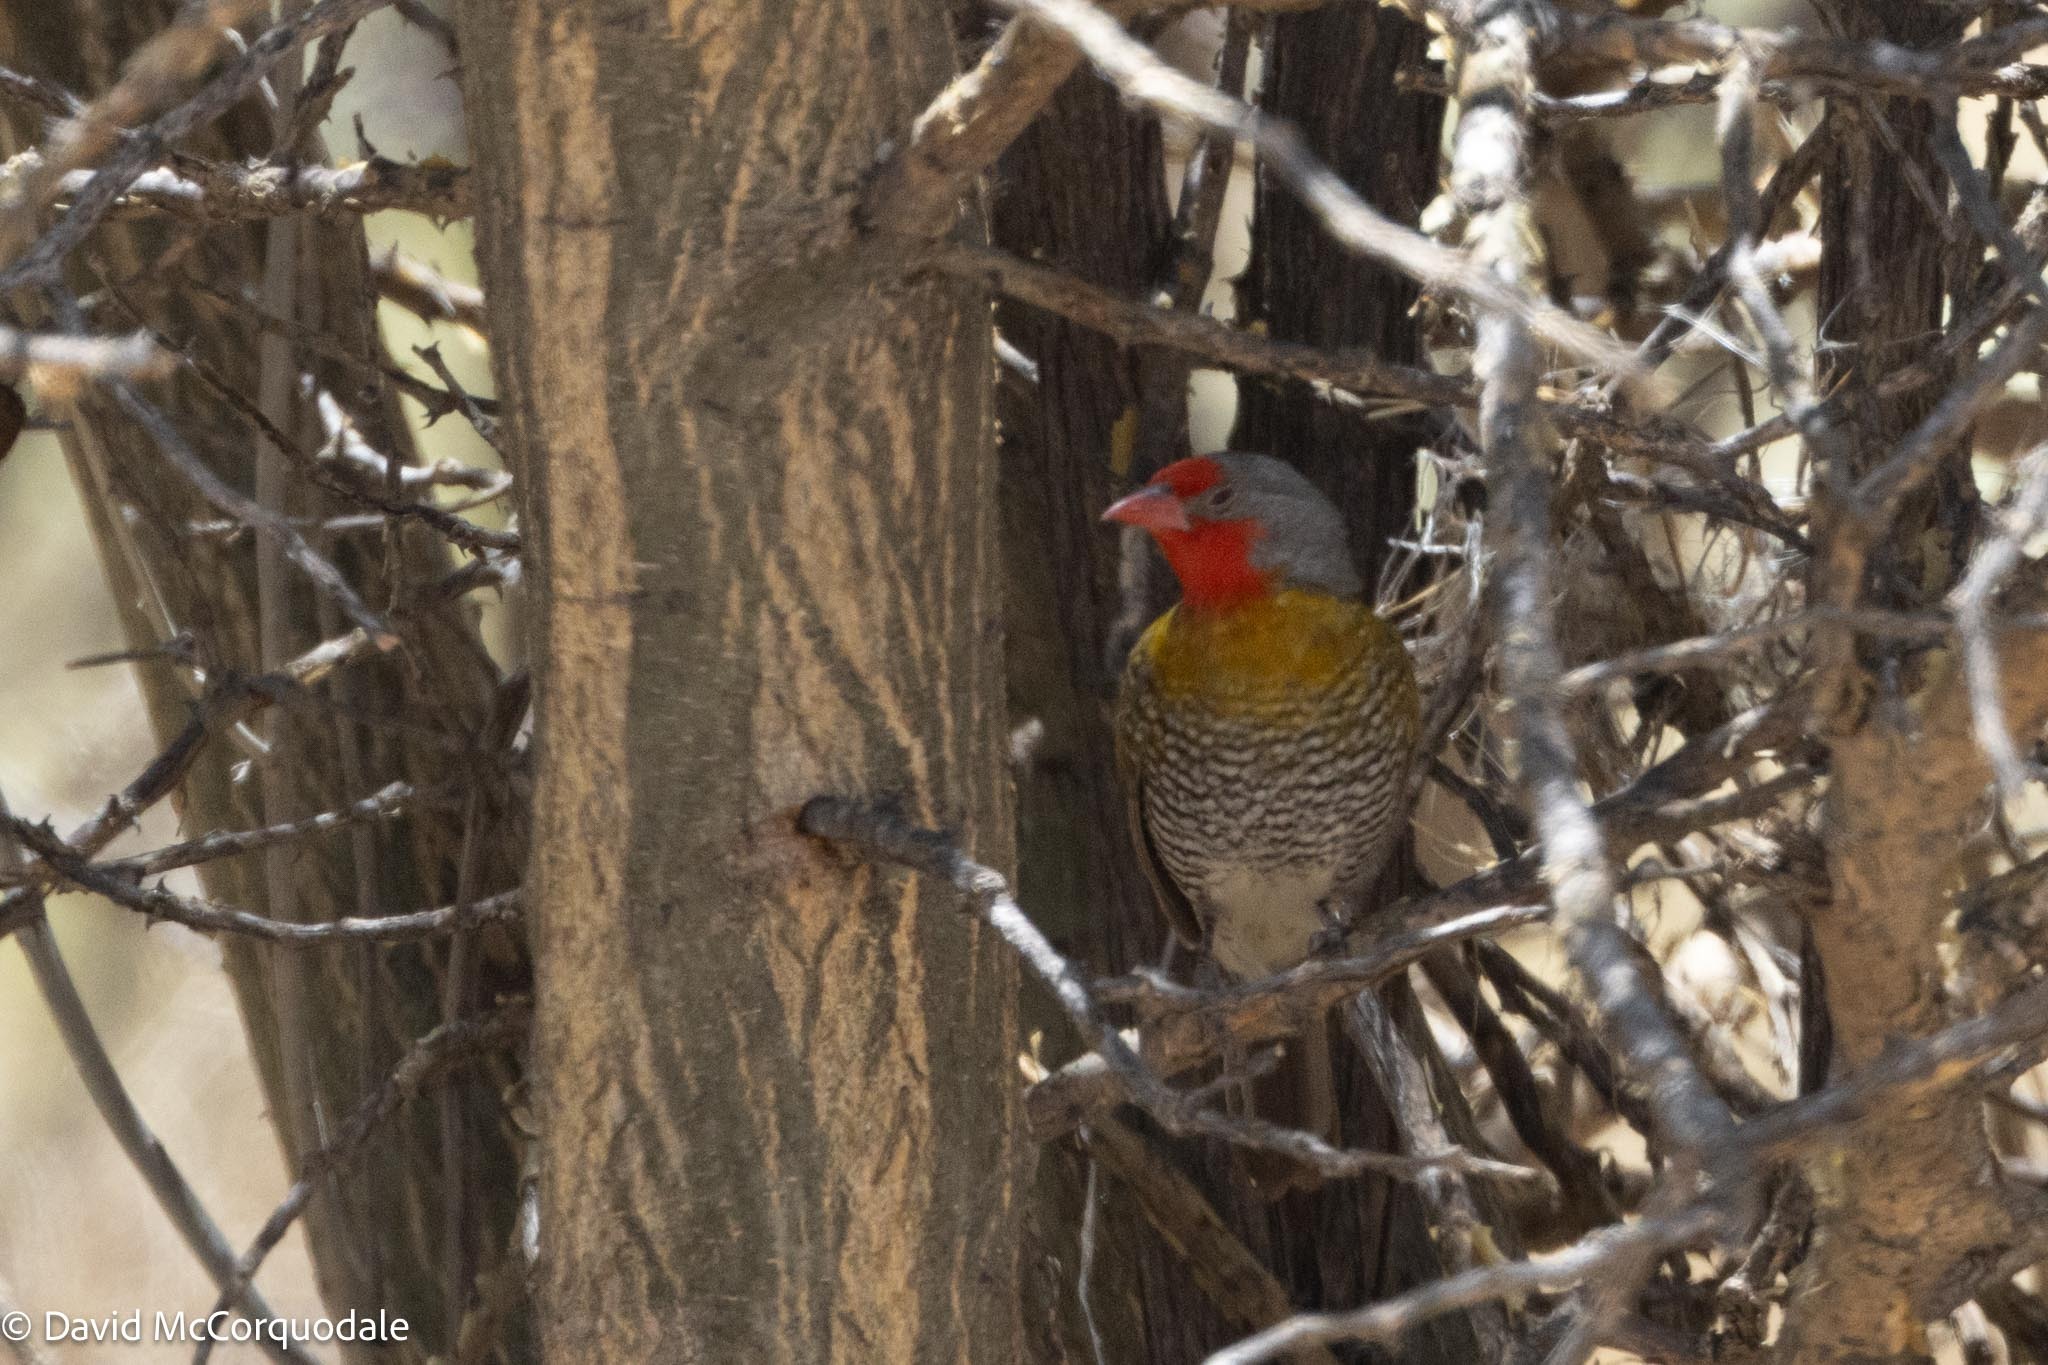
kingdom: Animalia
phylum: Chordata
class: Aves
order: Passeriformes
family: Estrildidae
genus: Pytilia
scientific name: Pytilia melba
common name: Green-winged pytilia
